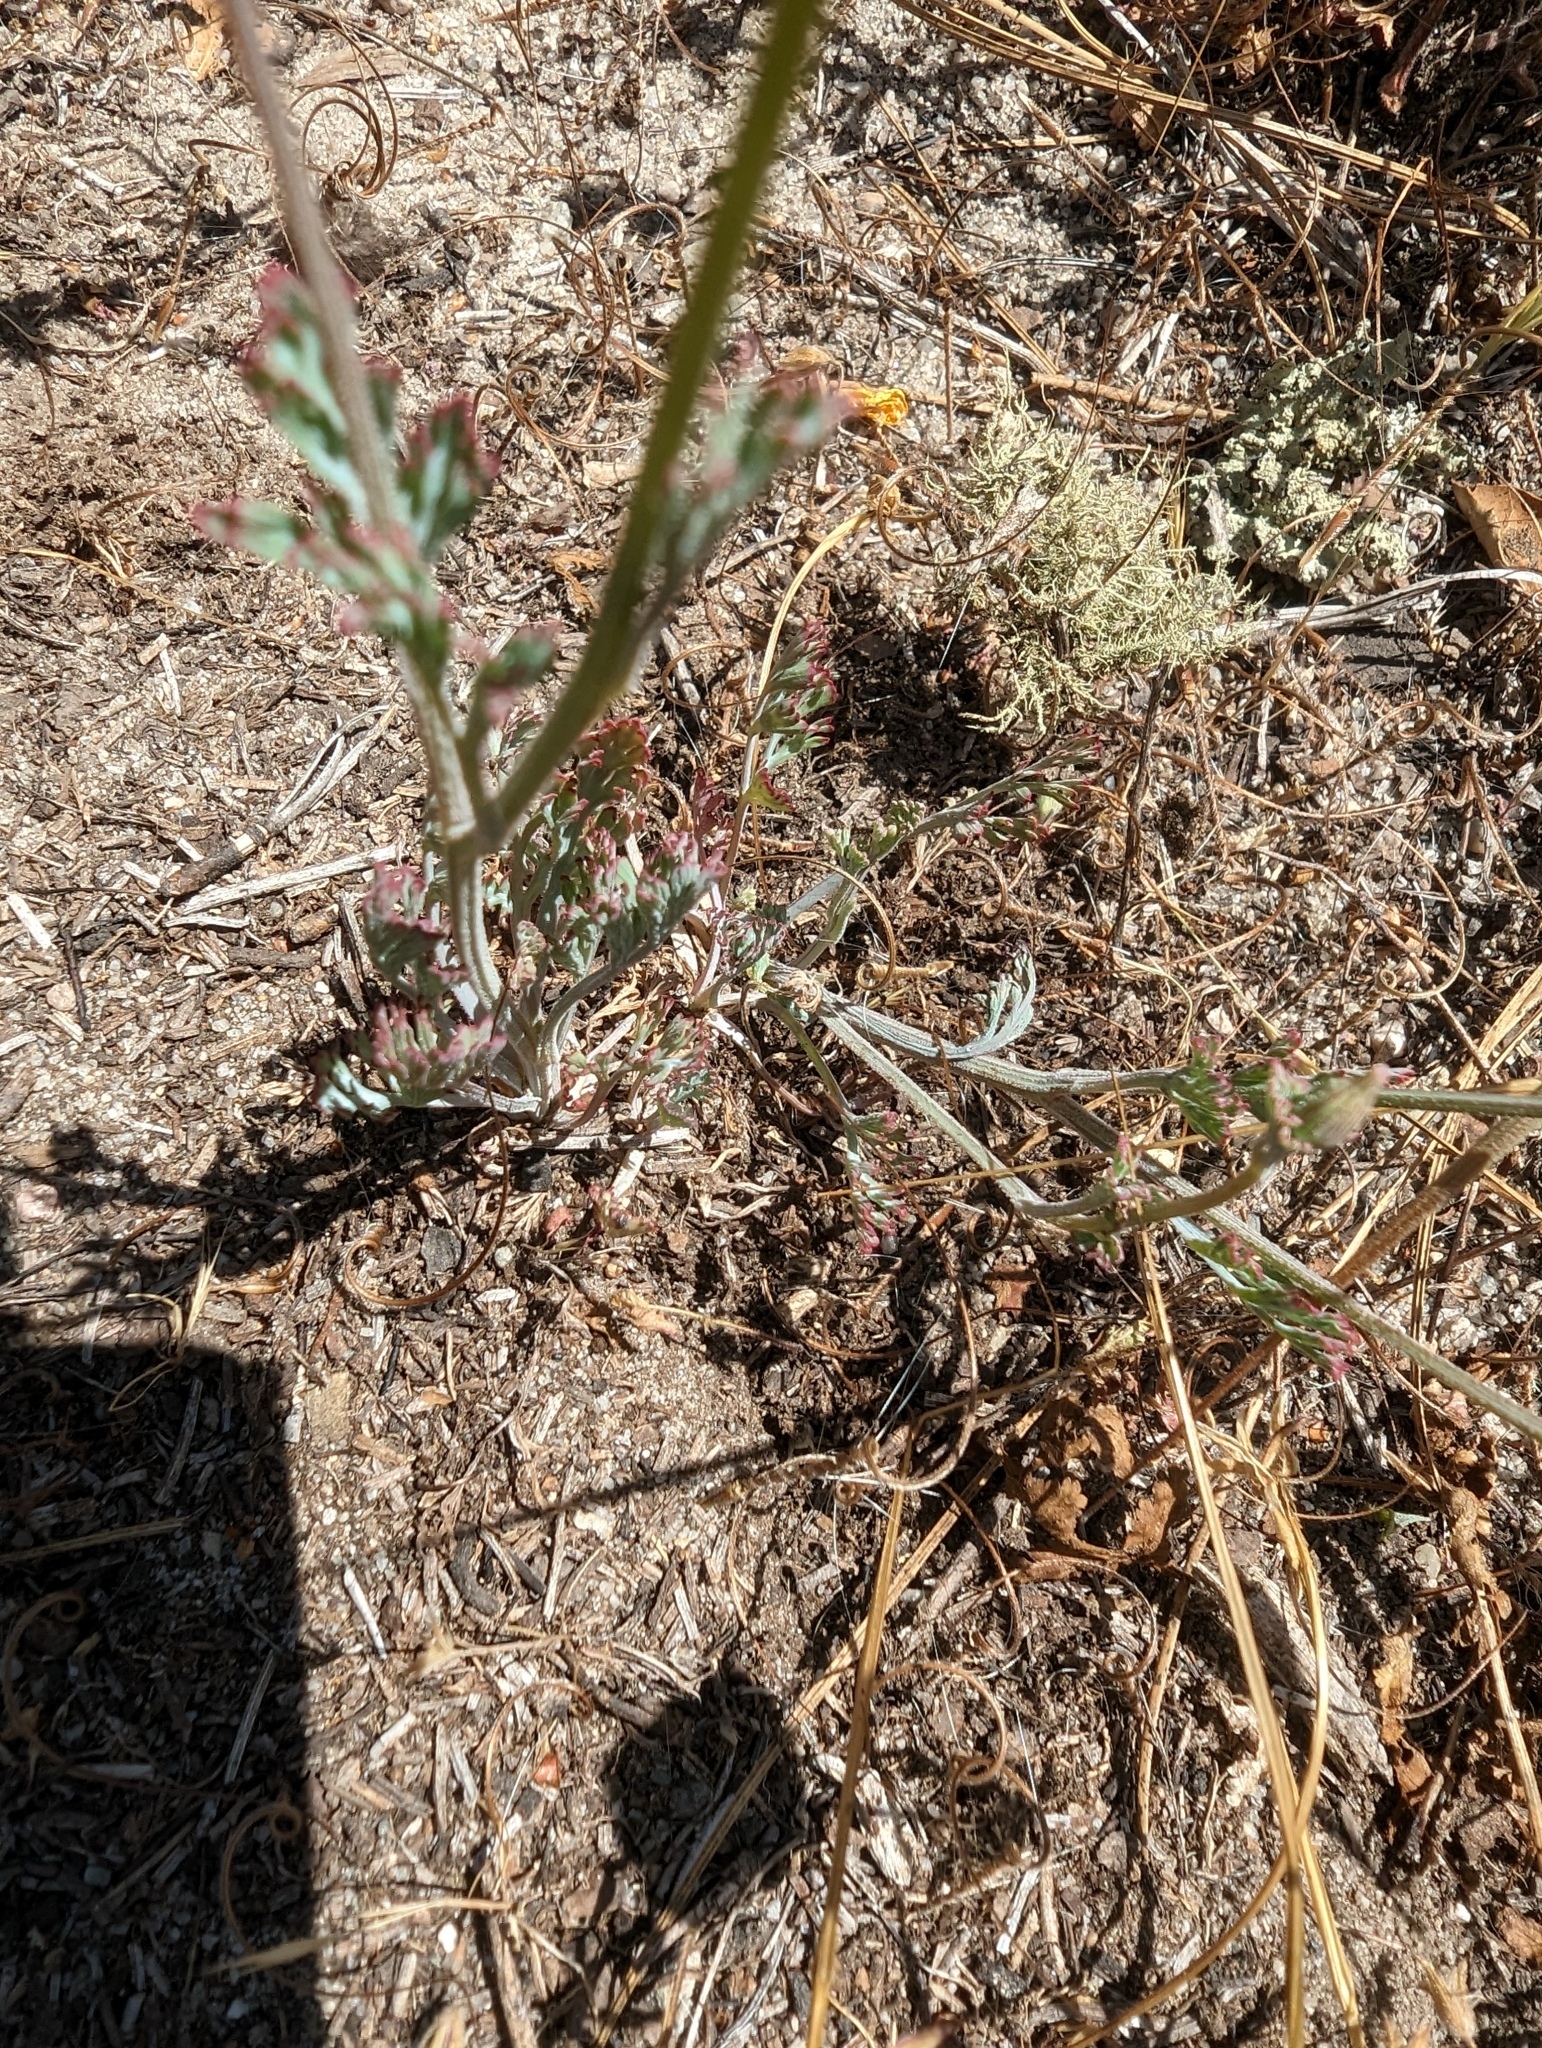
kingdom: Plantae
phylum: Tracheophyta
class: Magnoliopsida
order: Ranunculales
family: Papaveraceae
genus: Eschscholzia
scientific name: Eschscholzia californica
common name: California poppy
